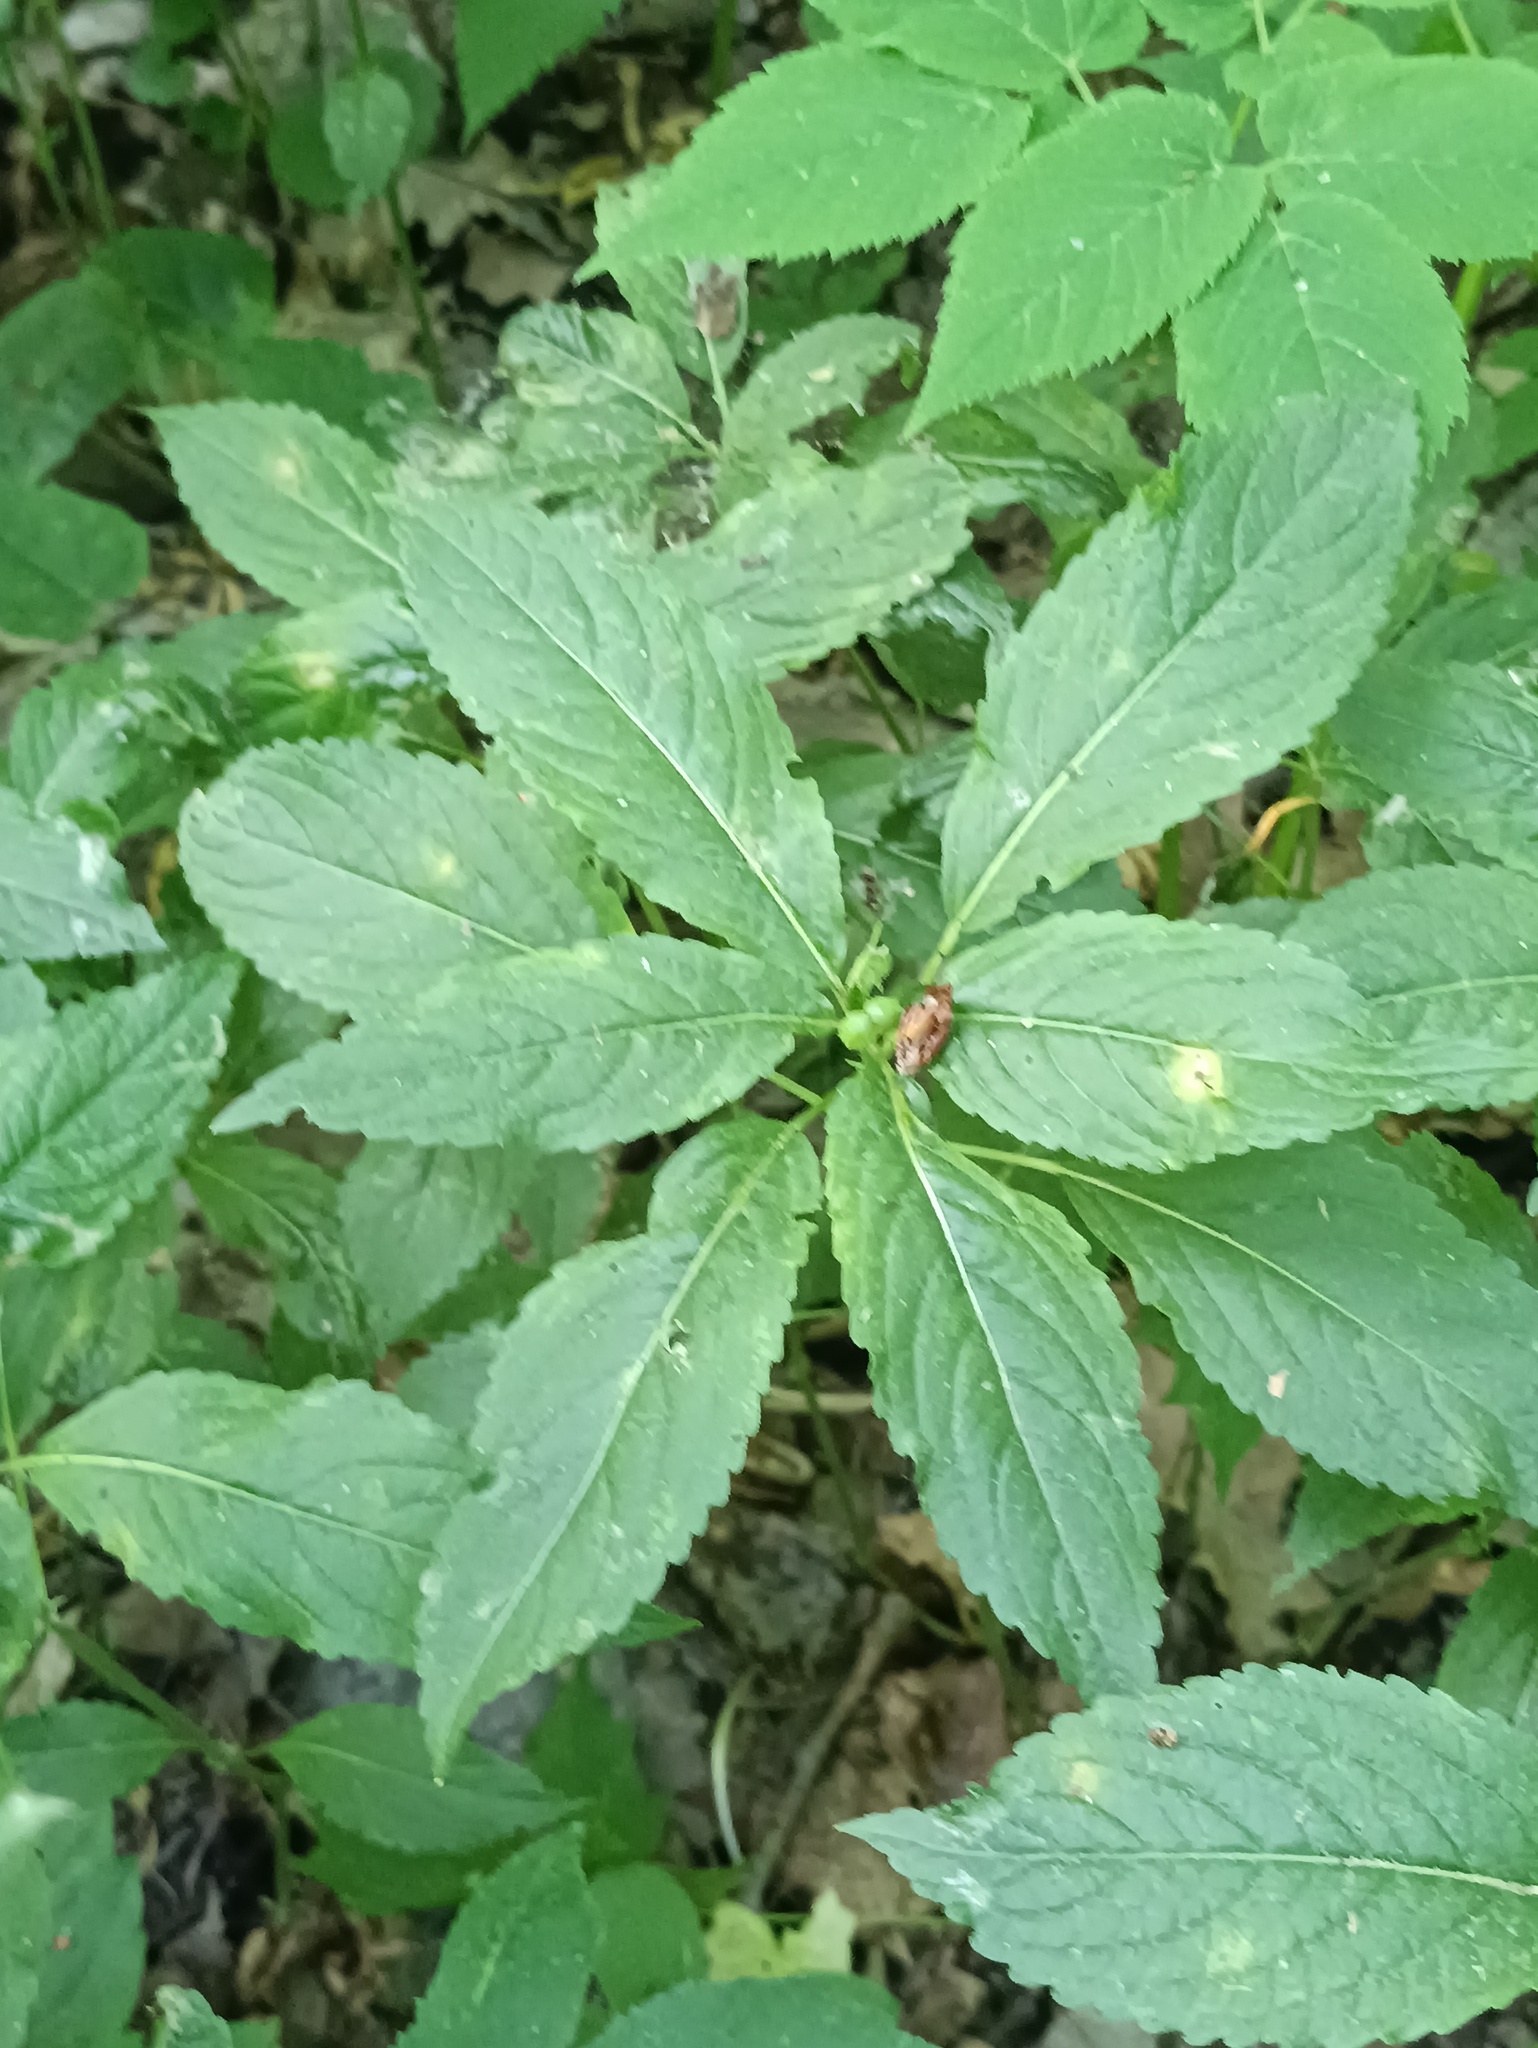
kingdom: Plantae
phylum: Tracheophyta
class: Magnoliopsida
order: Malpighiales
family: Euphorbiaceae
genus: Mercurialis
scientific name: Mercurialis perennis
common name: Dog mercury
